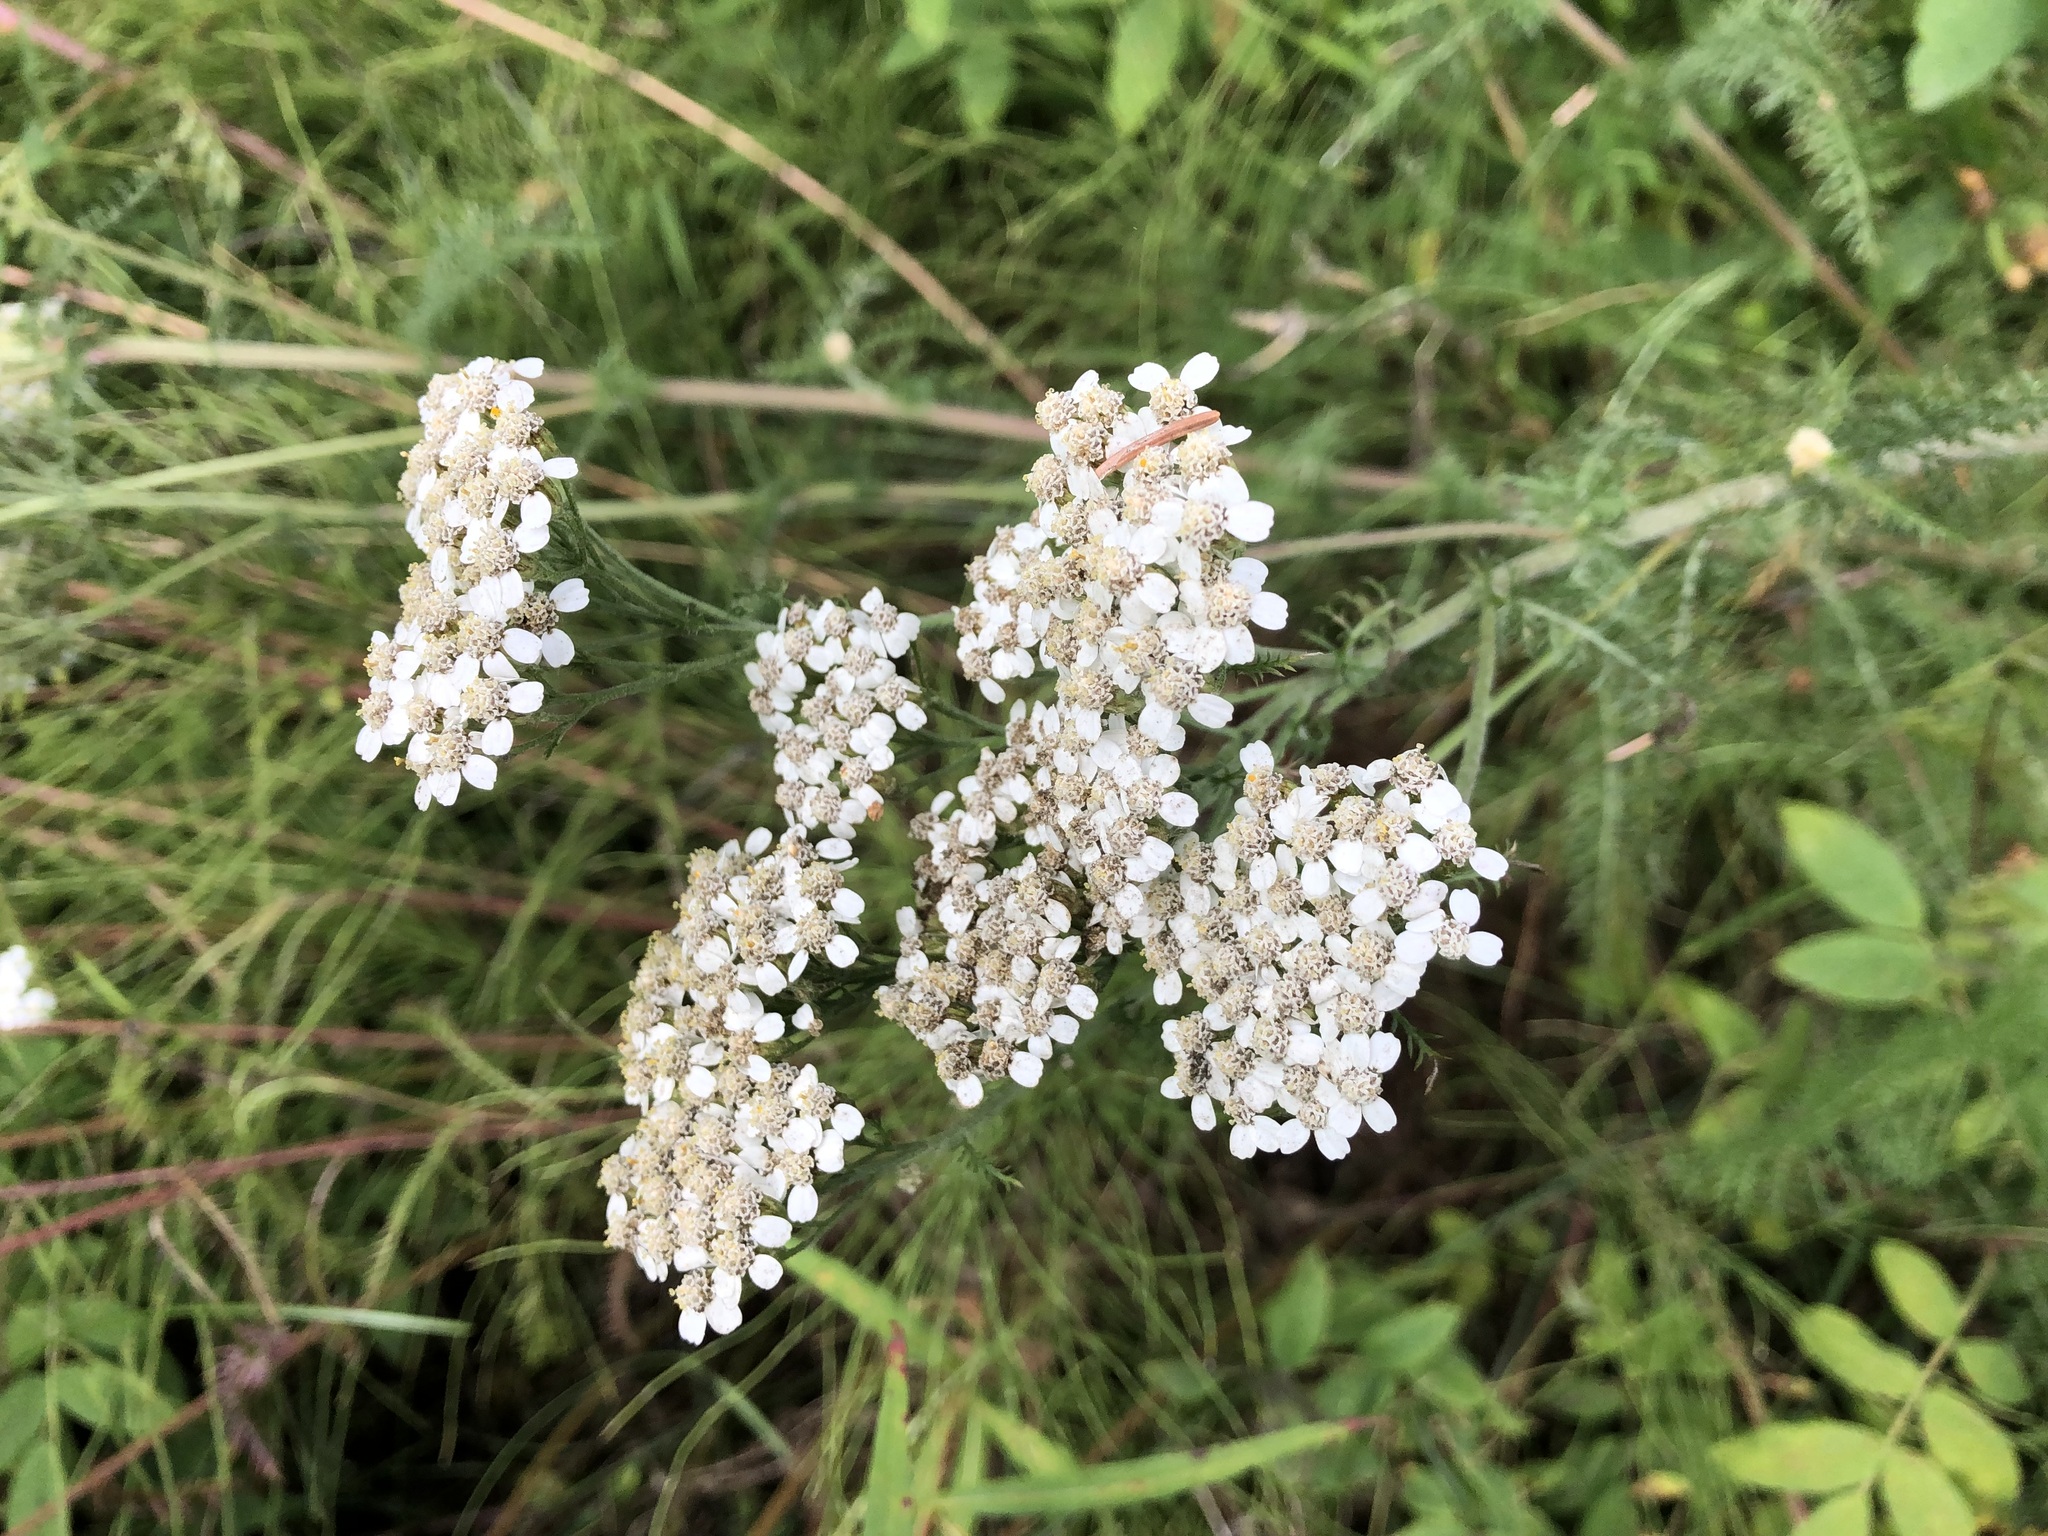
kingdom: Plantae
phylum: Tracheophyta
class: Magnoliopsida
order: Asterales
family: Asteraceae
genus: Achillea
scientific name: Achillea millefolium
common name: Yarrow
